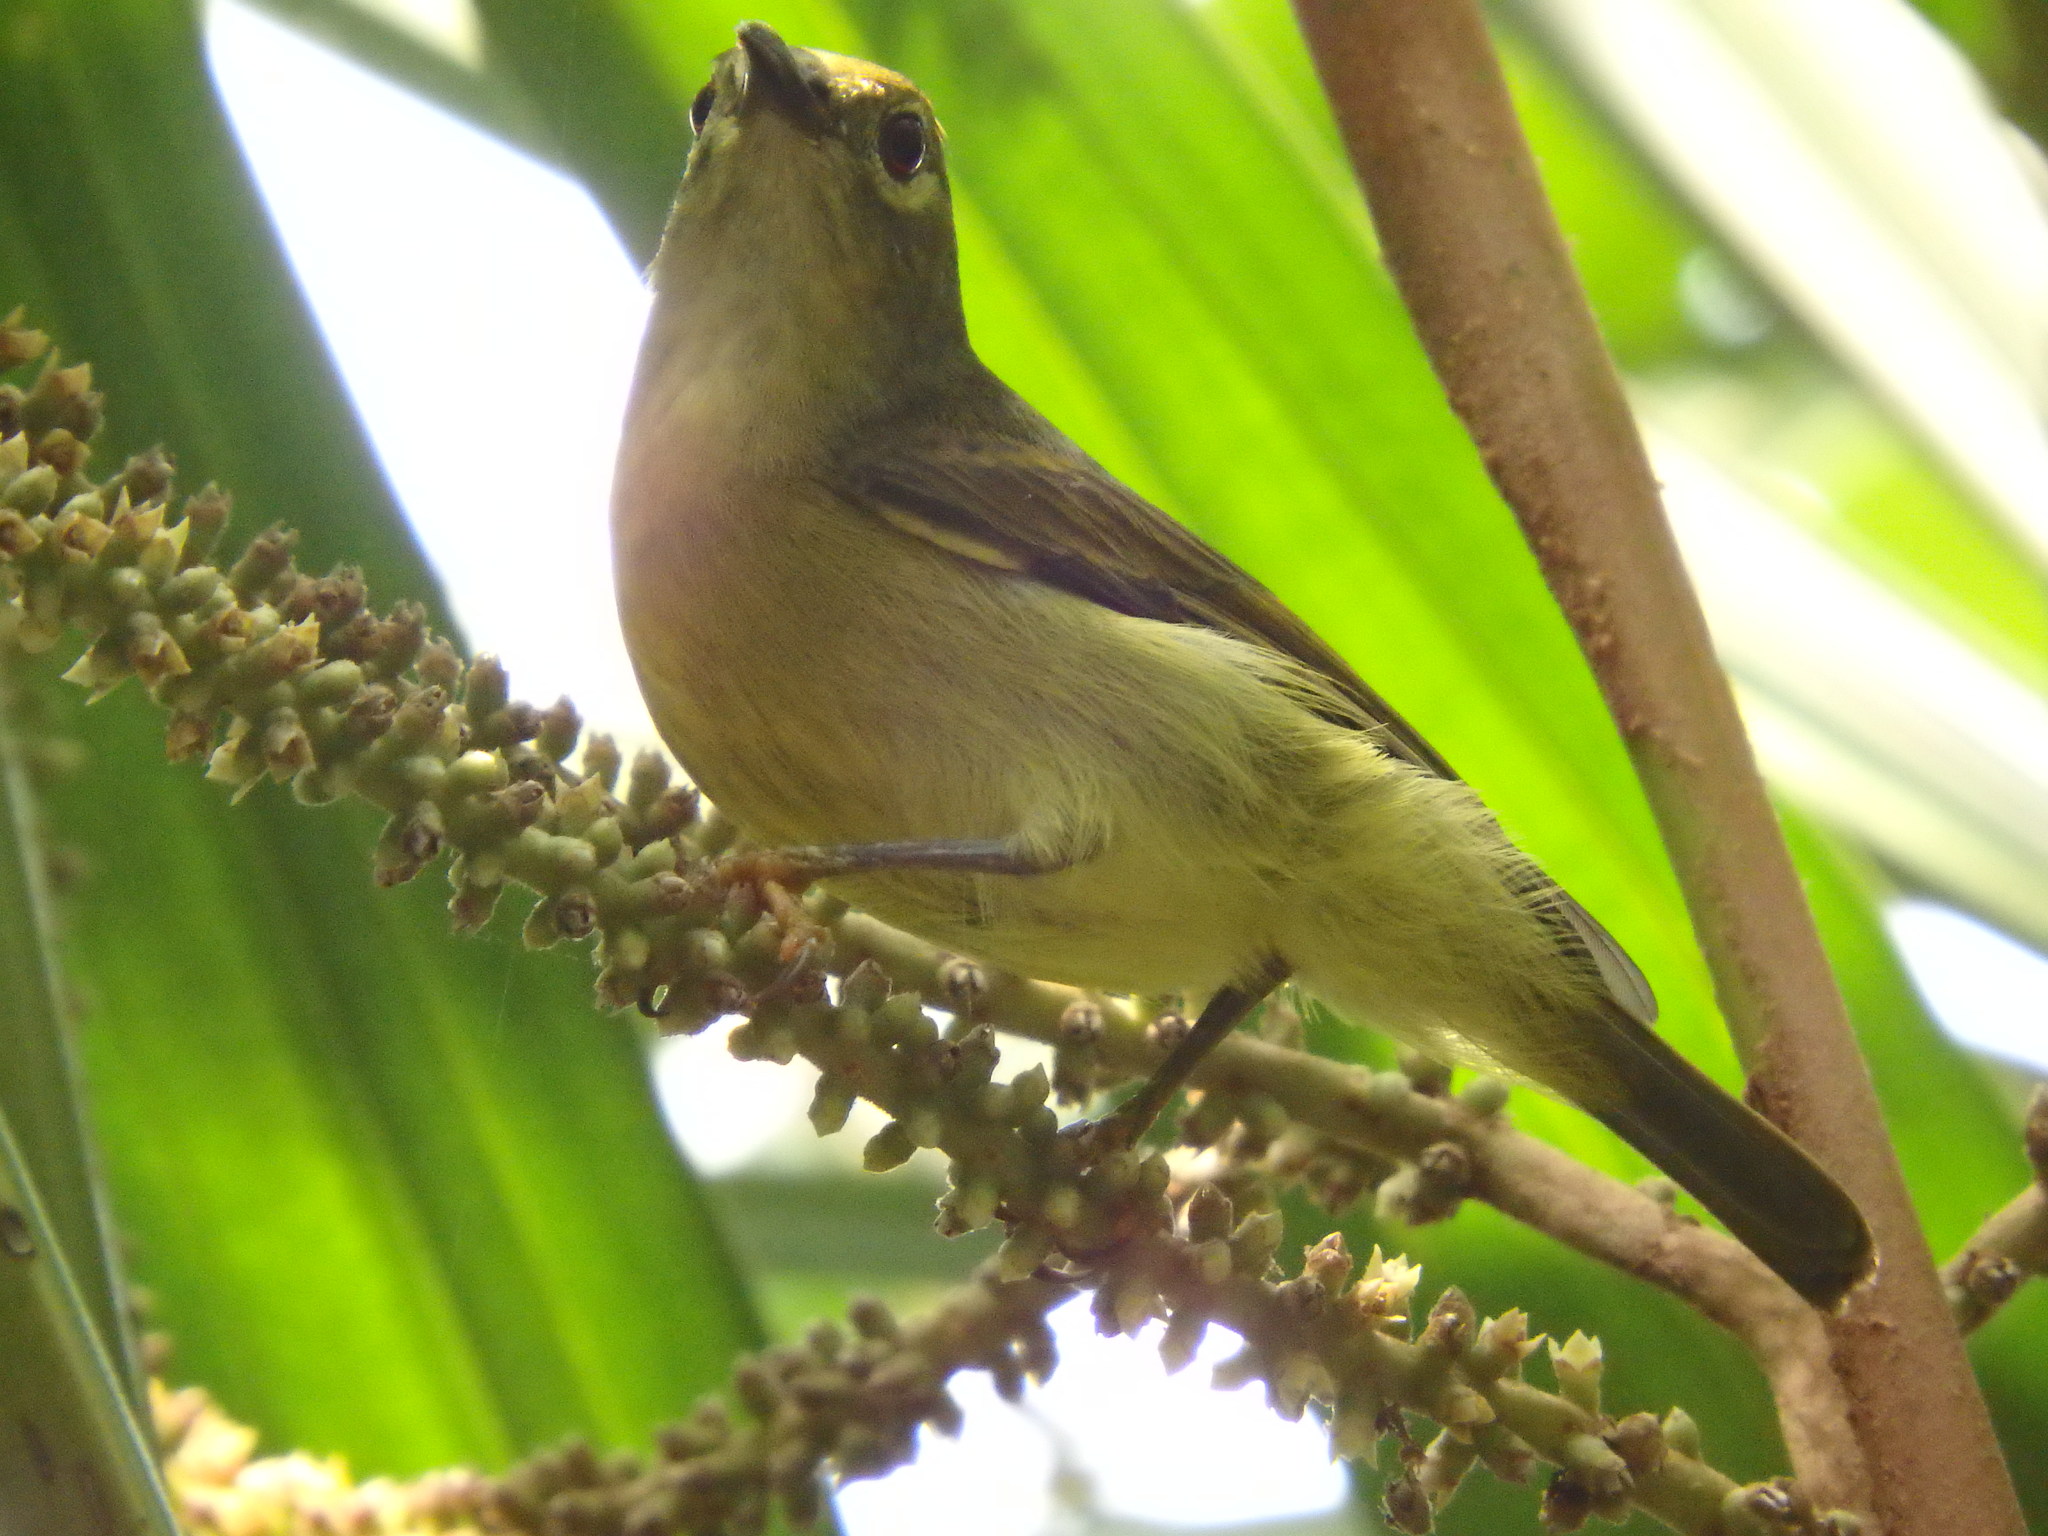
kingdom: Animalia
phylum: Chordata
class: Aves
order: Passeriformes
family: Nectariniidae
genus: Anthreptes
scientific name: Anthreptes malacensis
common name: Brown-throated sunbird
